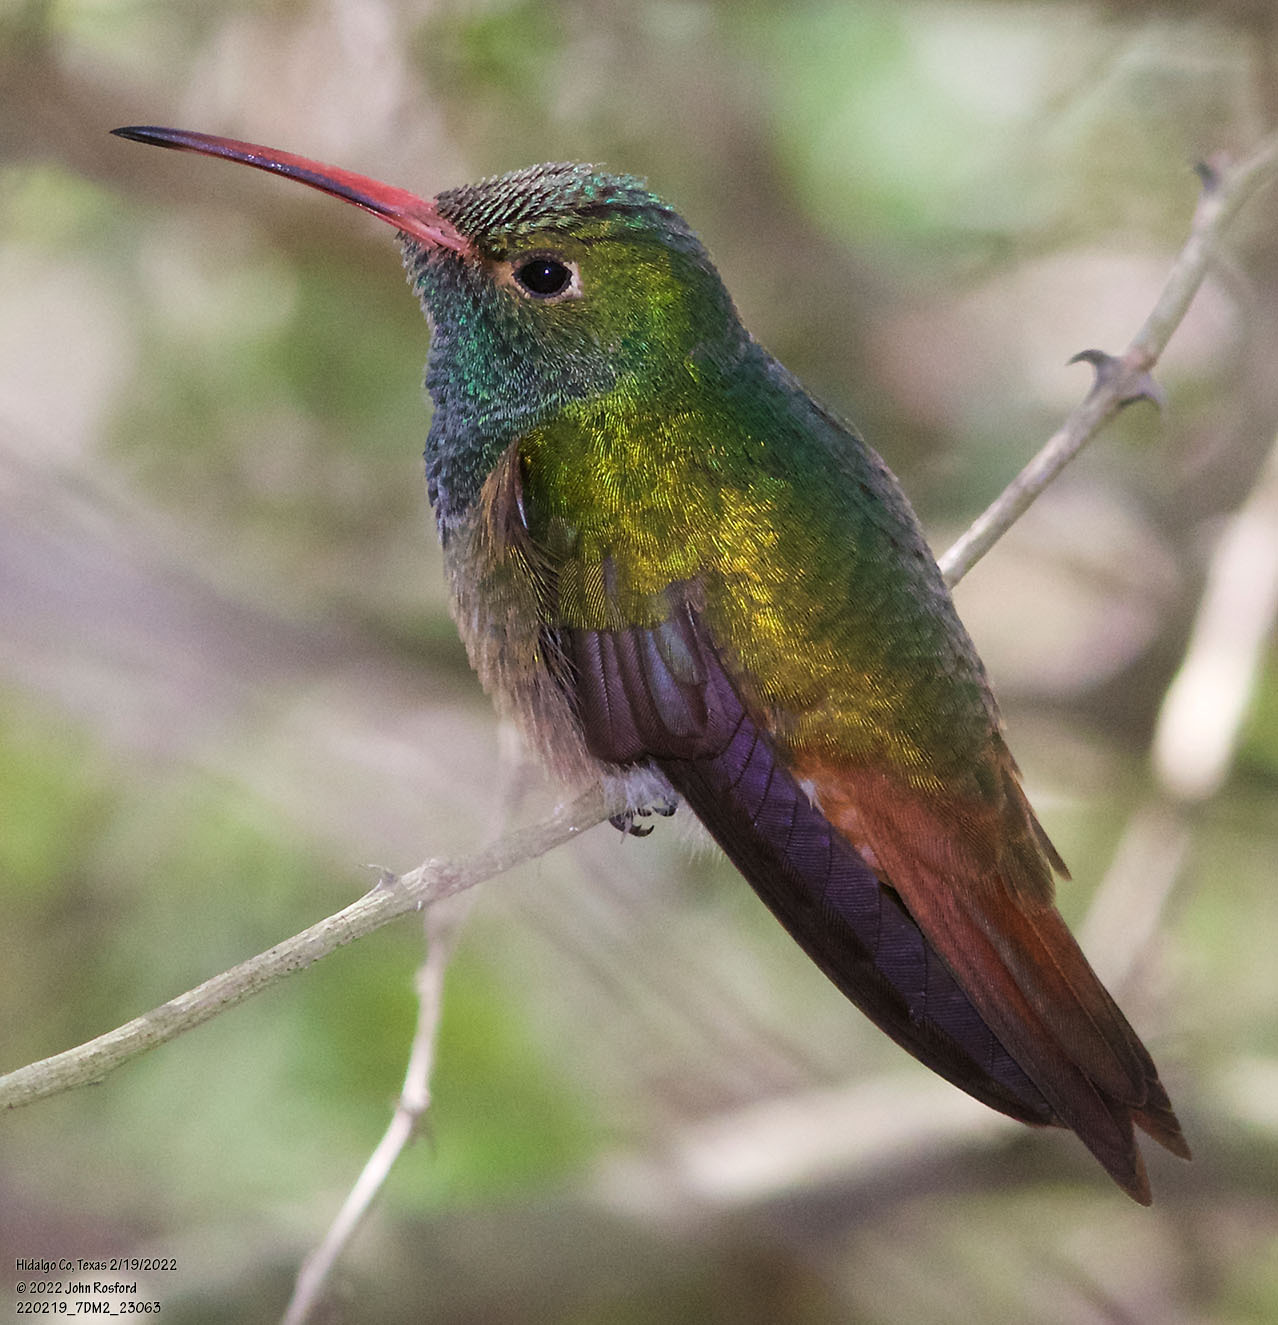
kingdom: Animalia
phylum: Chordata
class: Aves
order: Apodiformes
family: Trochilidae
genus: Amazilia
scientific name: Amazilia yucatanensis
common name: Buff-bellied hummingbird
